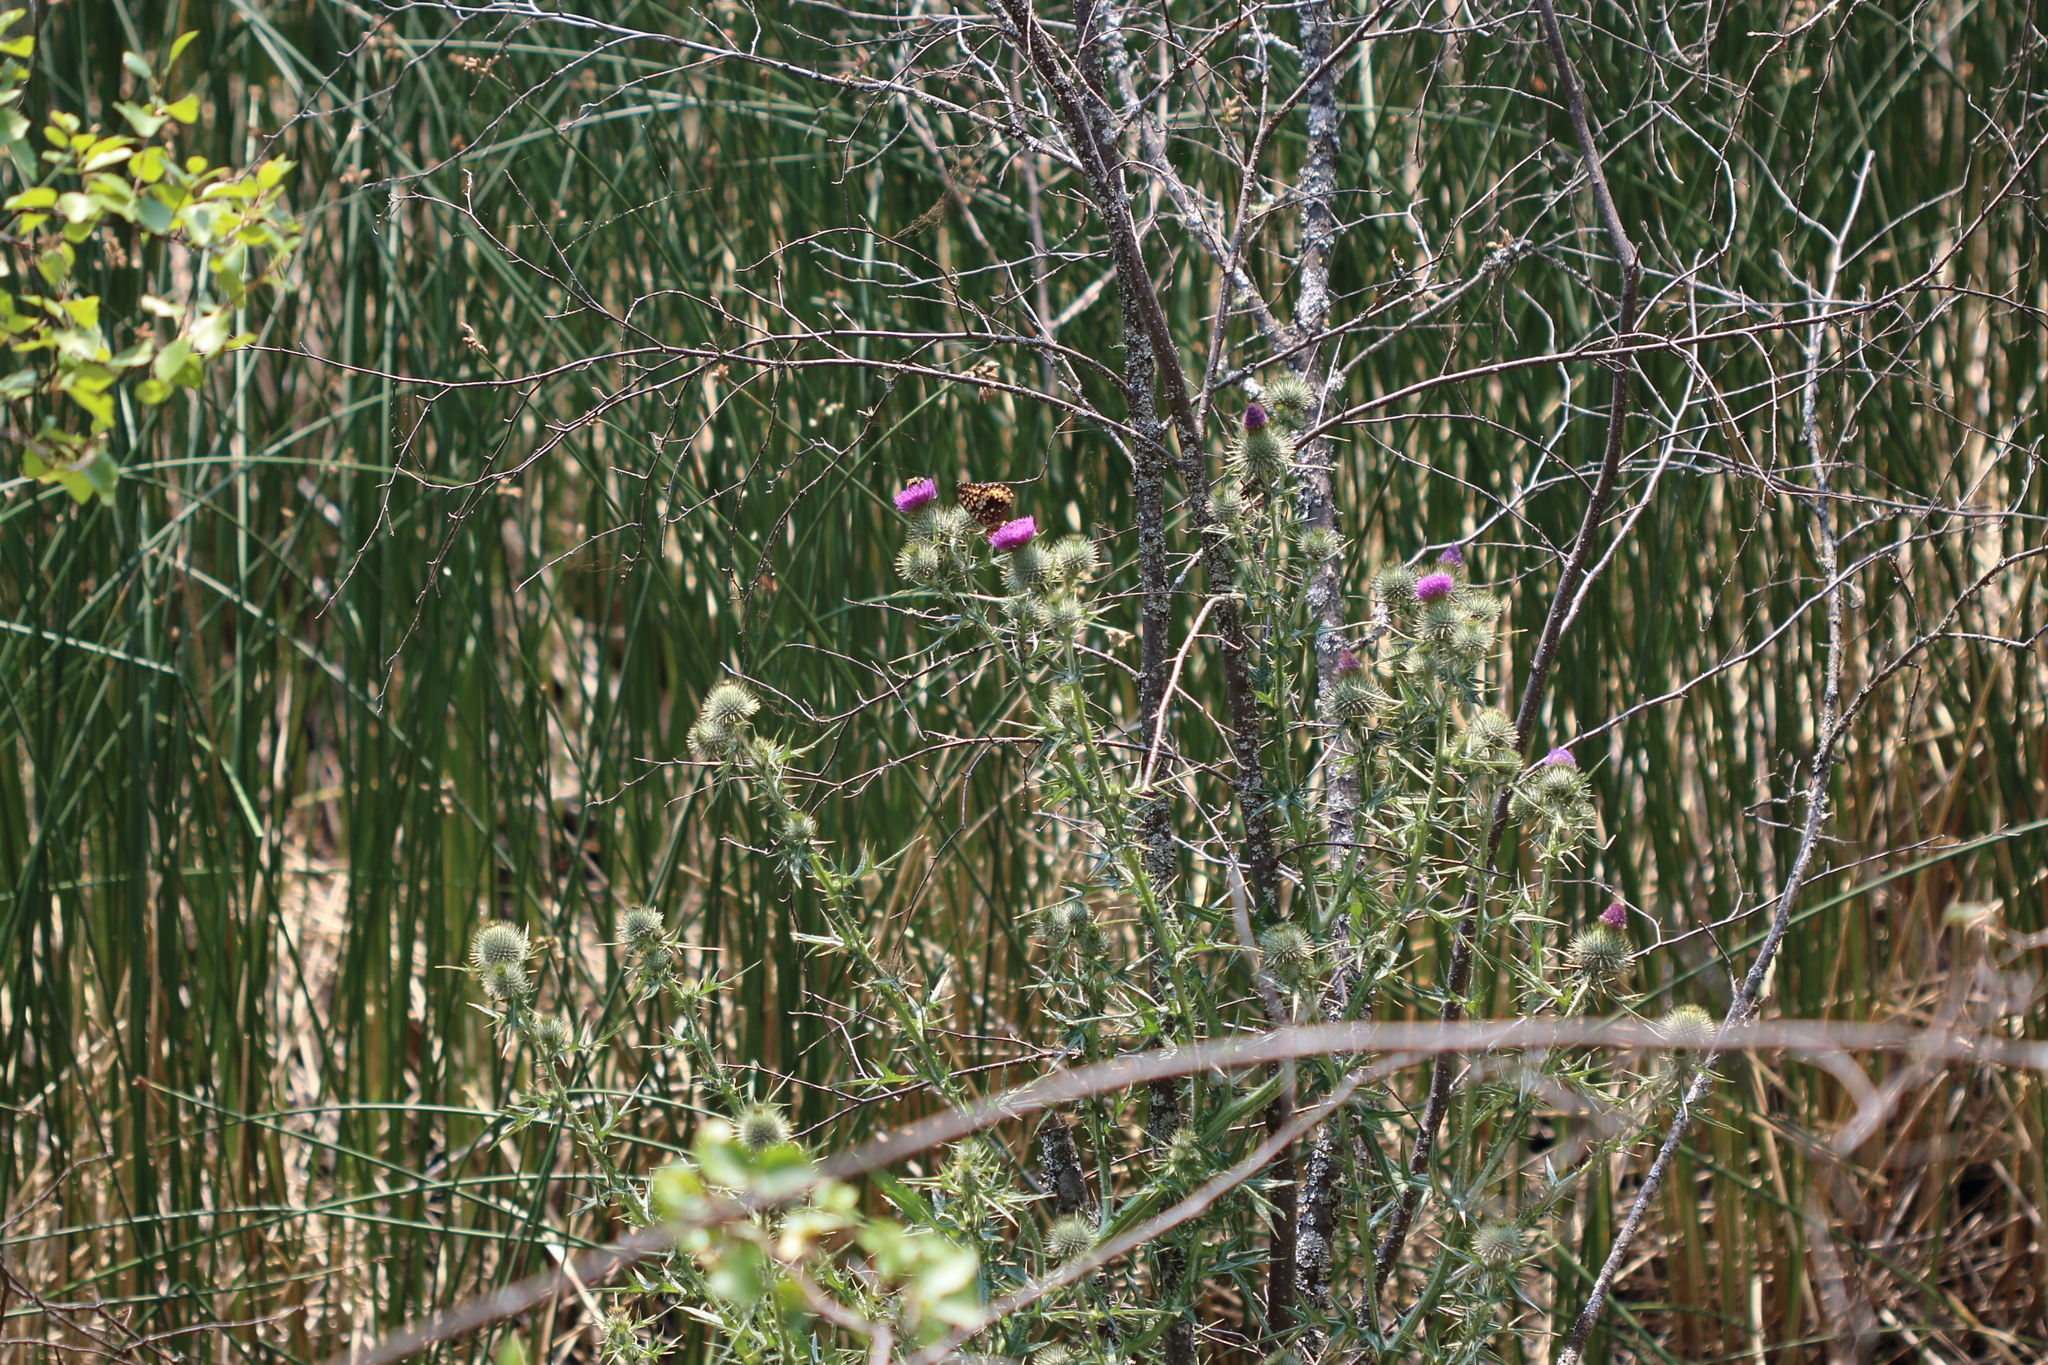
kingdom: Plantae
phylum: Tracheophyta
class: Magnoliopsida
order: Asterales
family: Asteraceae
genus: Cirsium
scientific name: Cirsium vulgare
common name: Bull thistle
